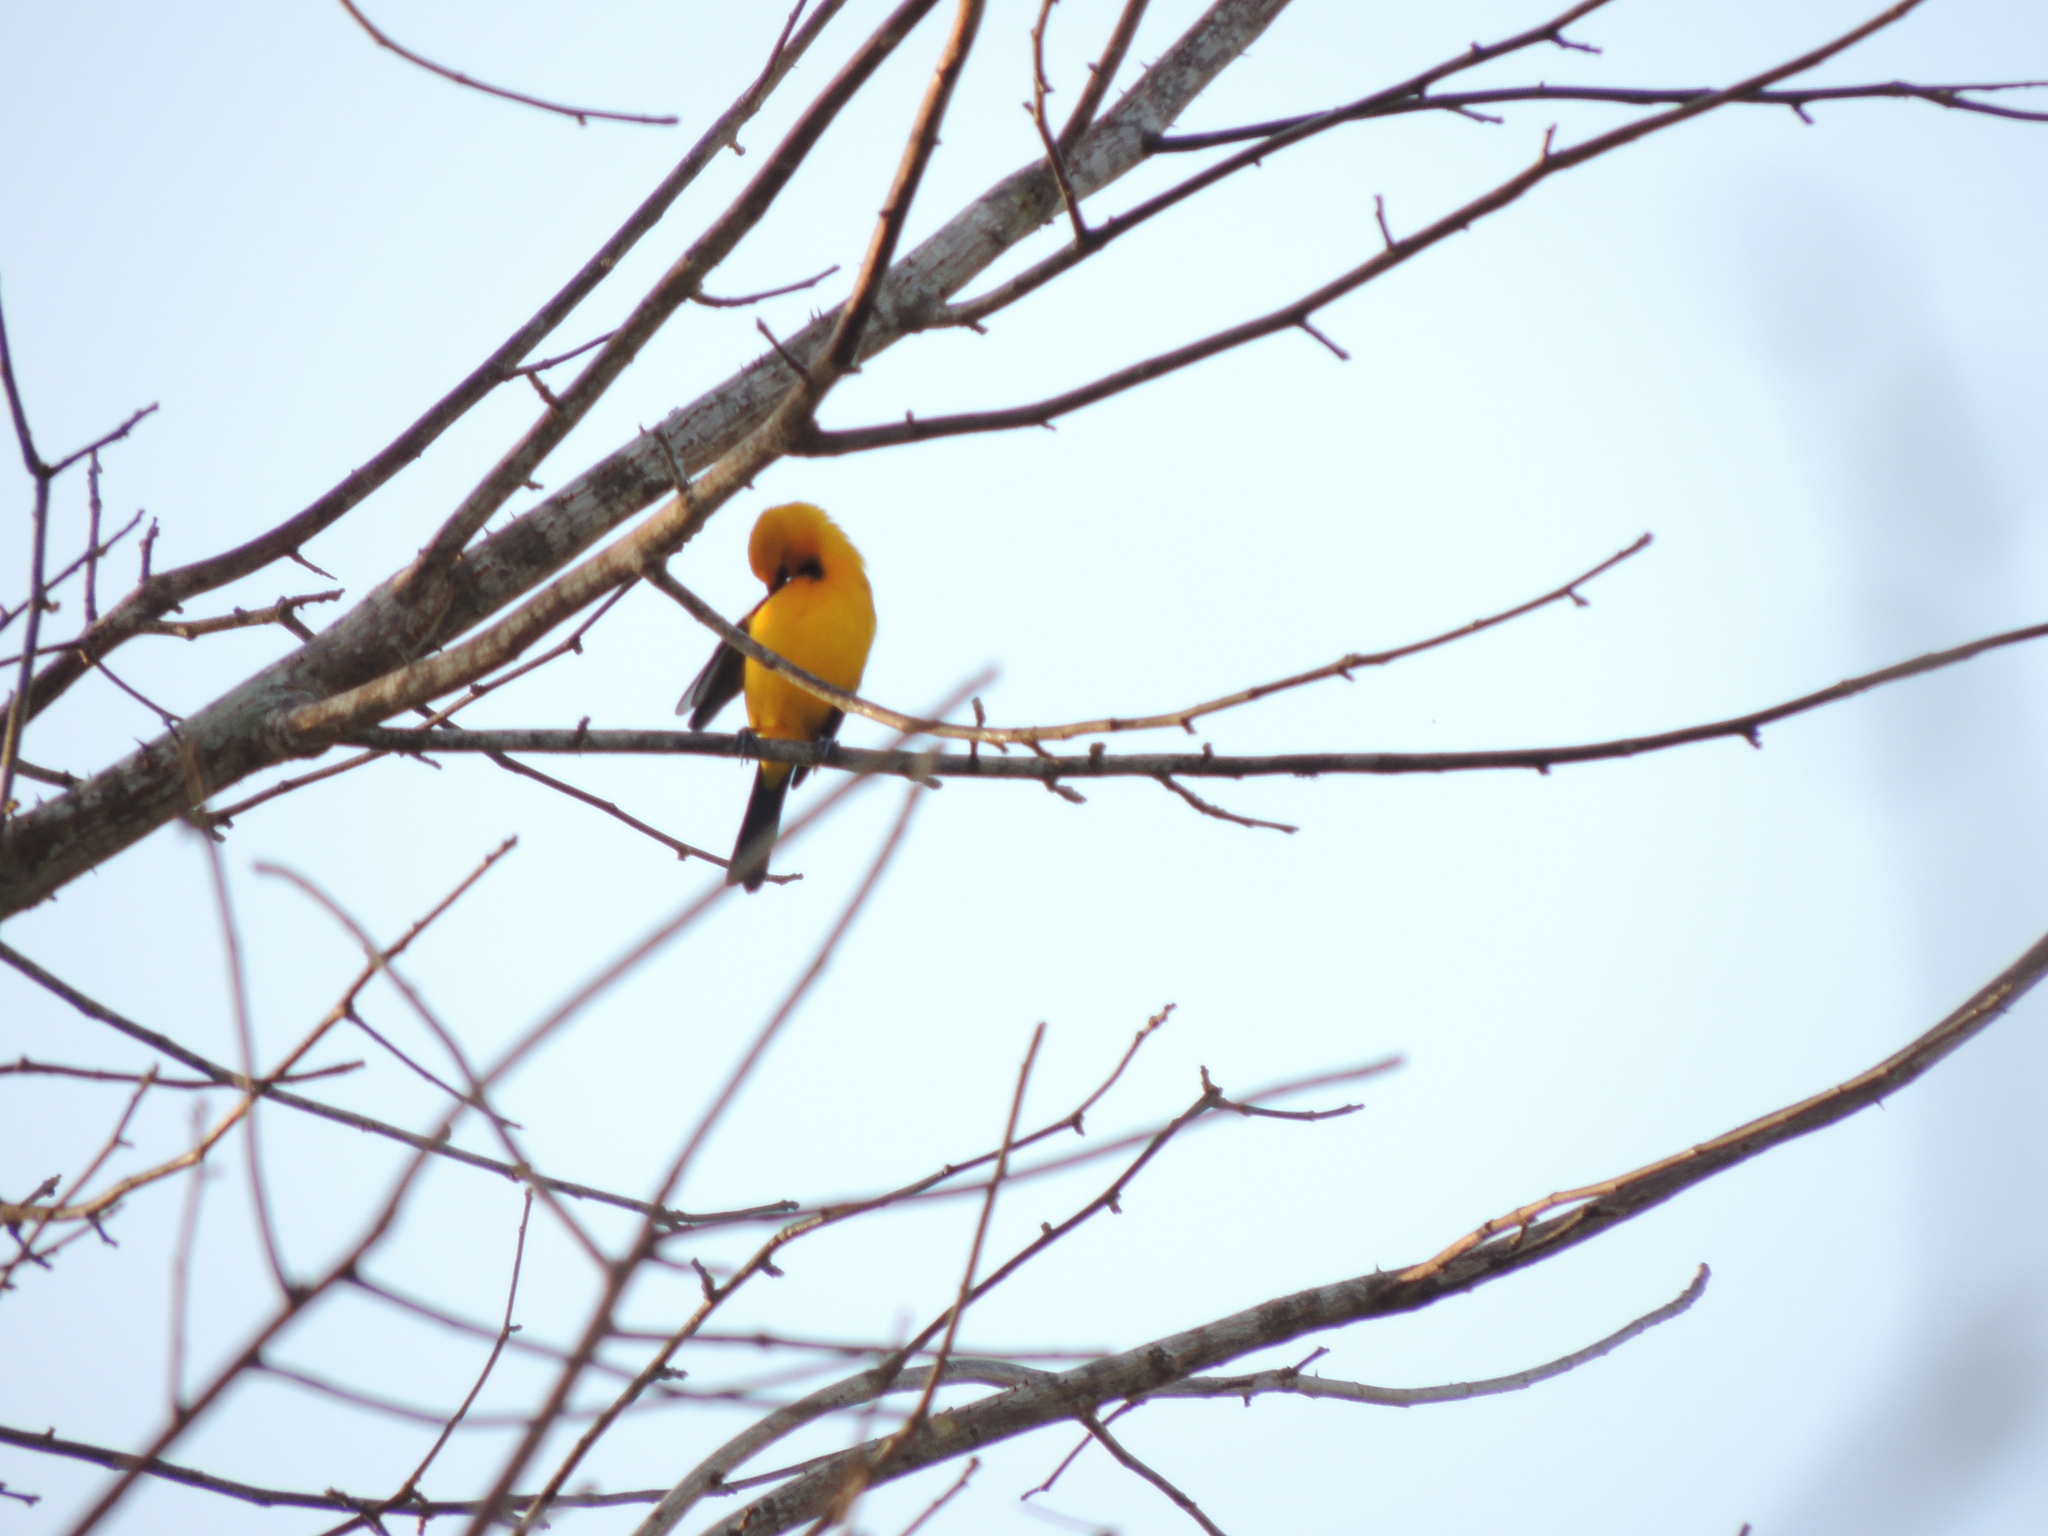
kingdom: Animalia
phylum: Chordata
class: Aves
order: Passeriformes
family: Icteridae
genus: Icterus
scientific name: Icterus nigrogularis
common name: Yellow oriole
